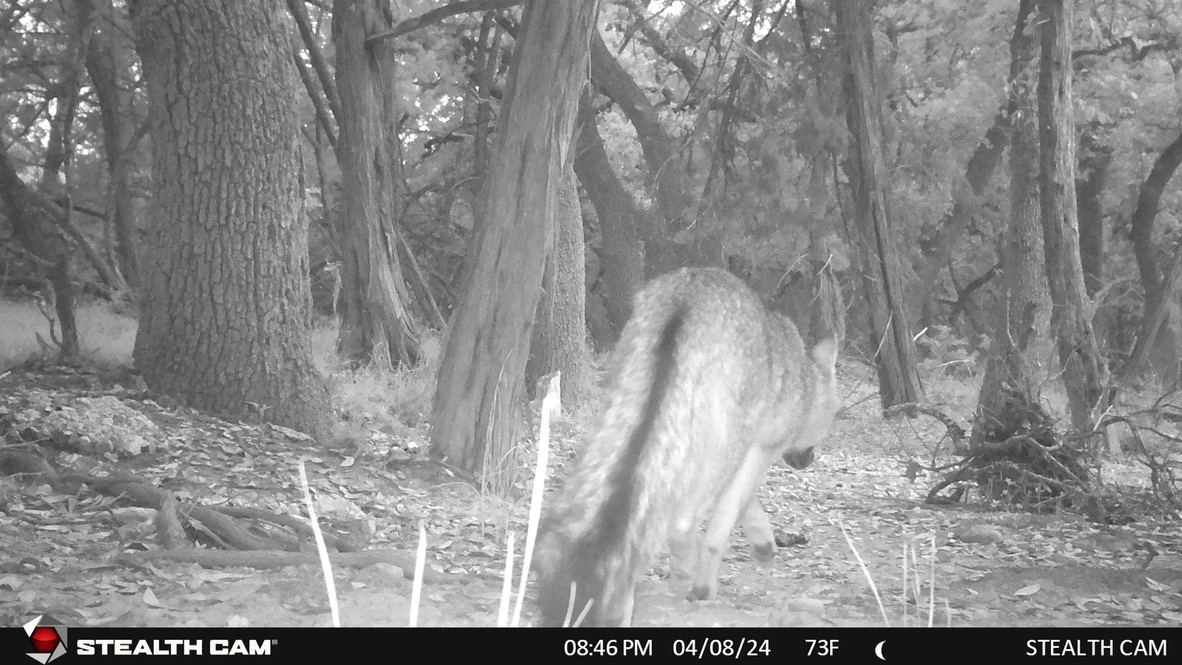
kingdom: Animalia
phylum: Chordata
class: Mammalia
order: Carnivora
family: Canidae
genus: Urocyon
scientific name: Urocyon cinereoargenteus
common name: Gray fox
